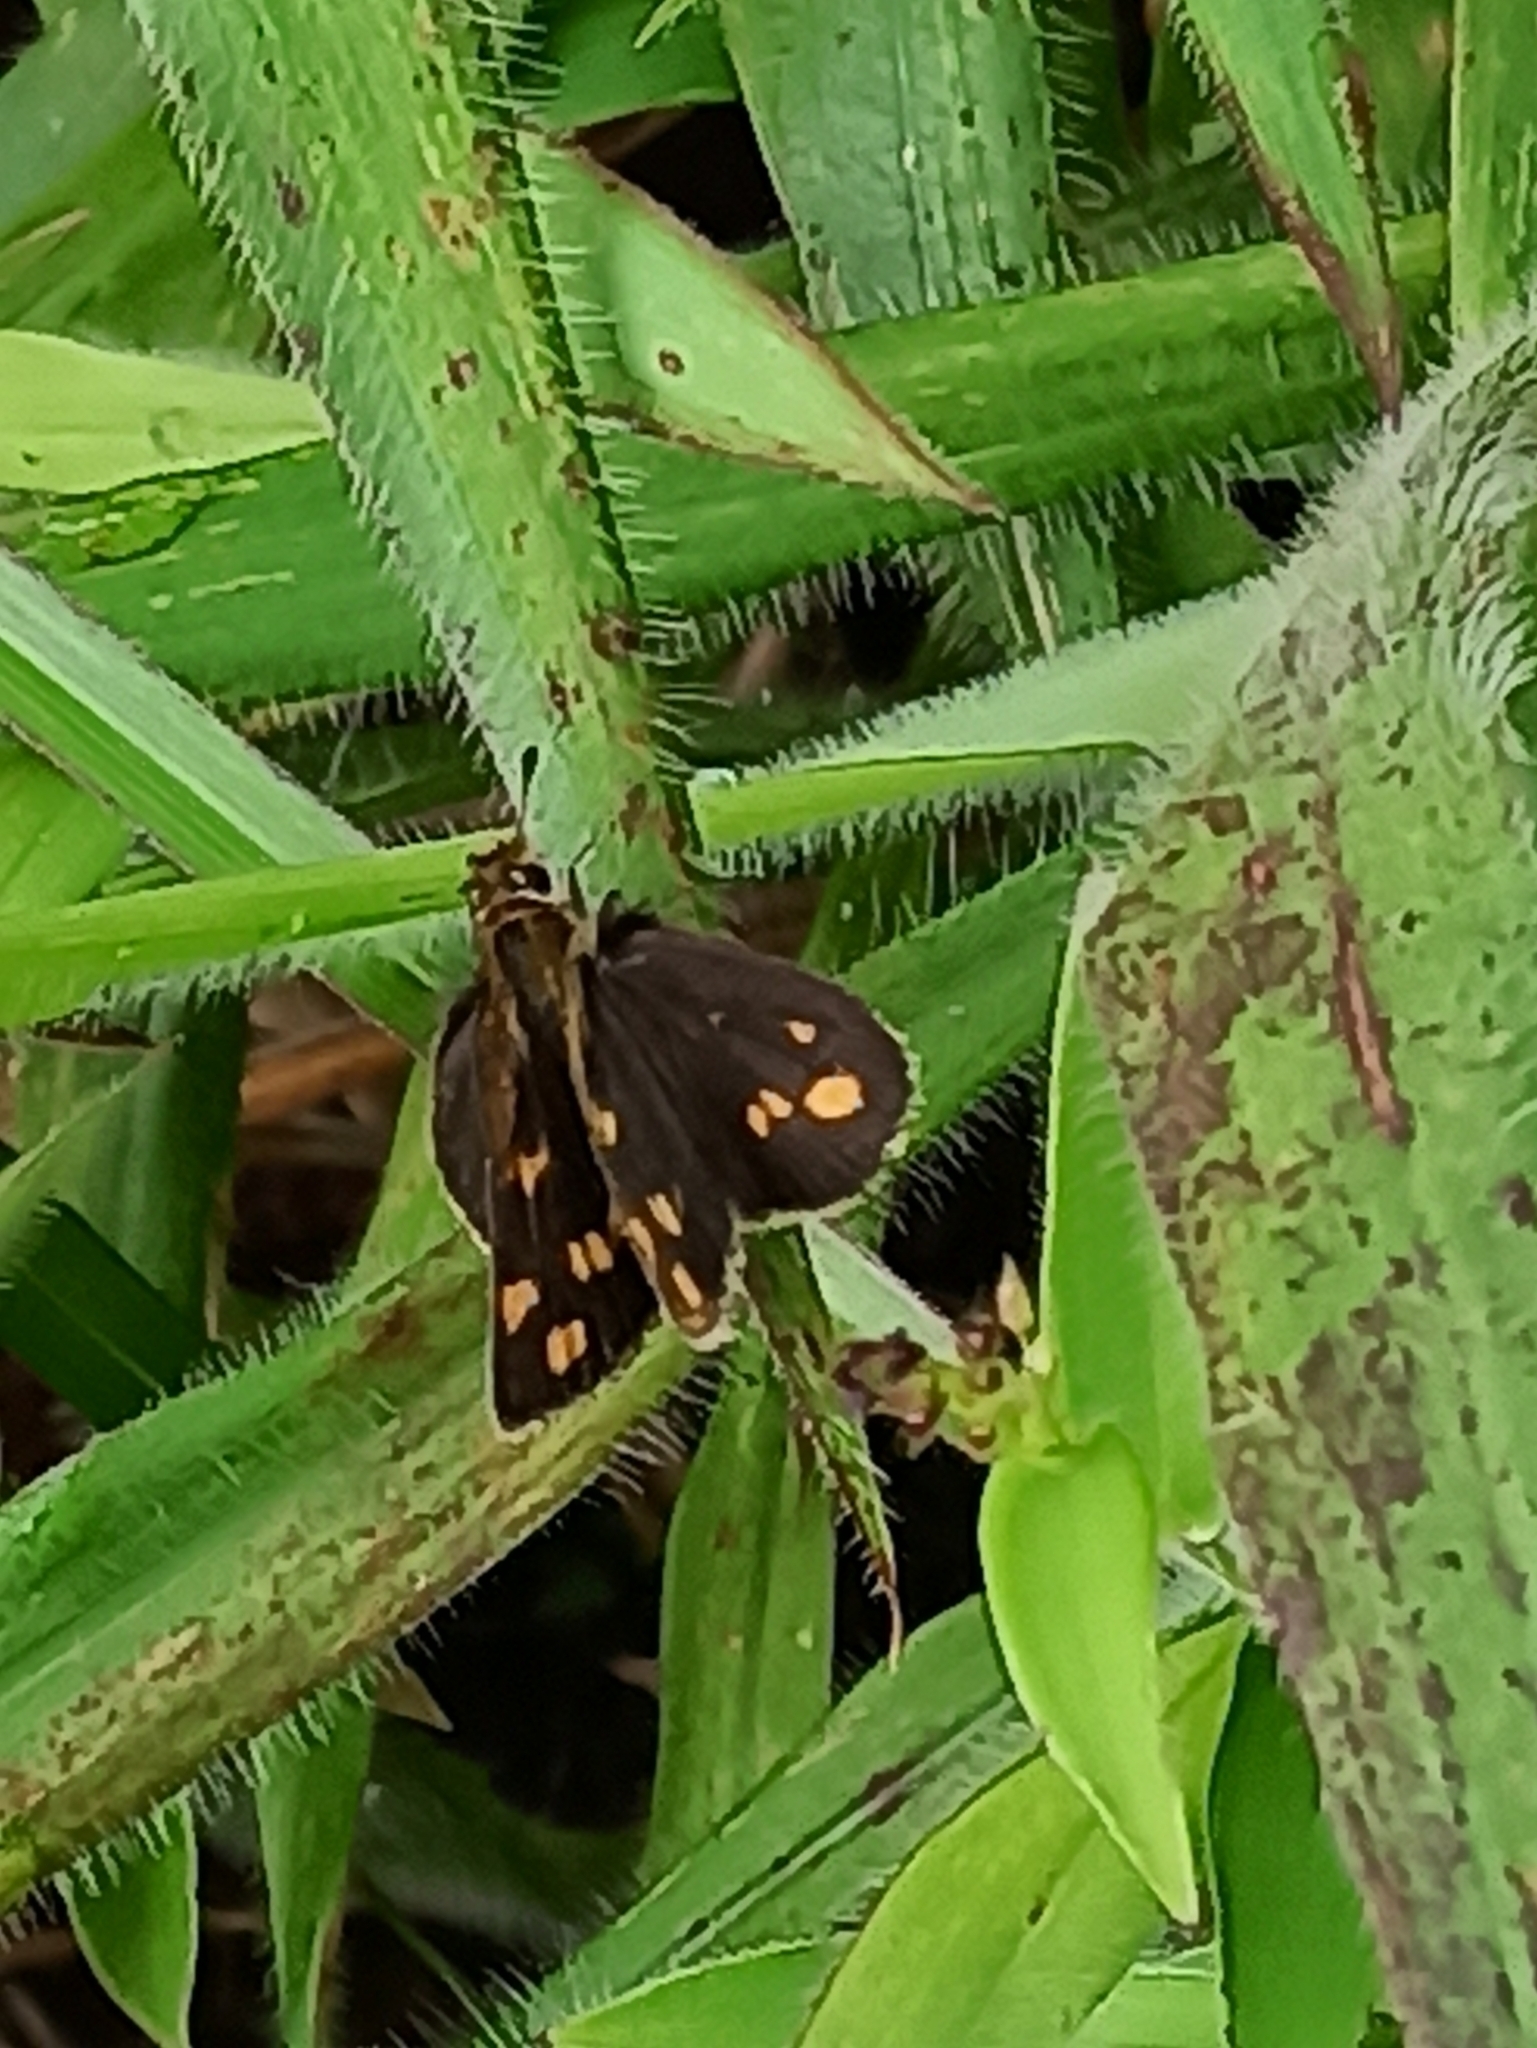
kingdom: Animalia
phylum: Arthropoda
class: Insecta
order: Lepidoptera
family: Hesperiidae
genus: Taractrocera
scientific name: Taractrocera ceramas
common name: Tamil grass dart
